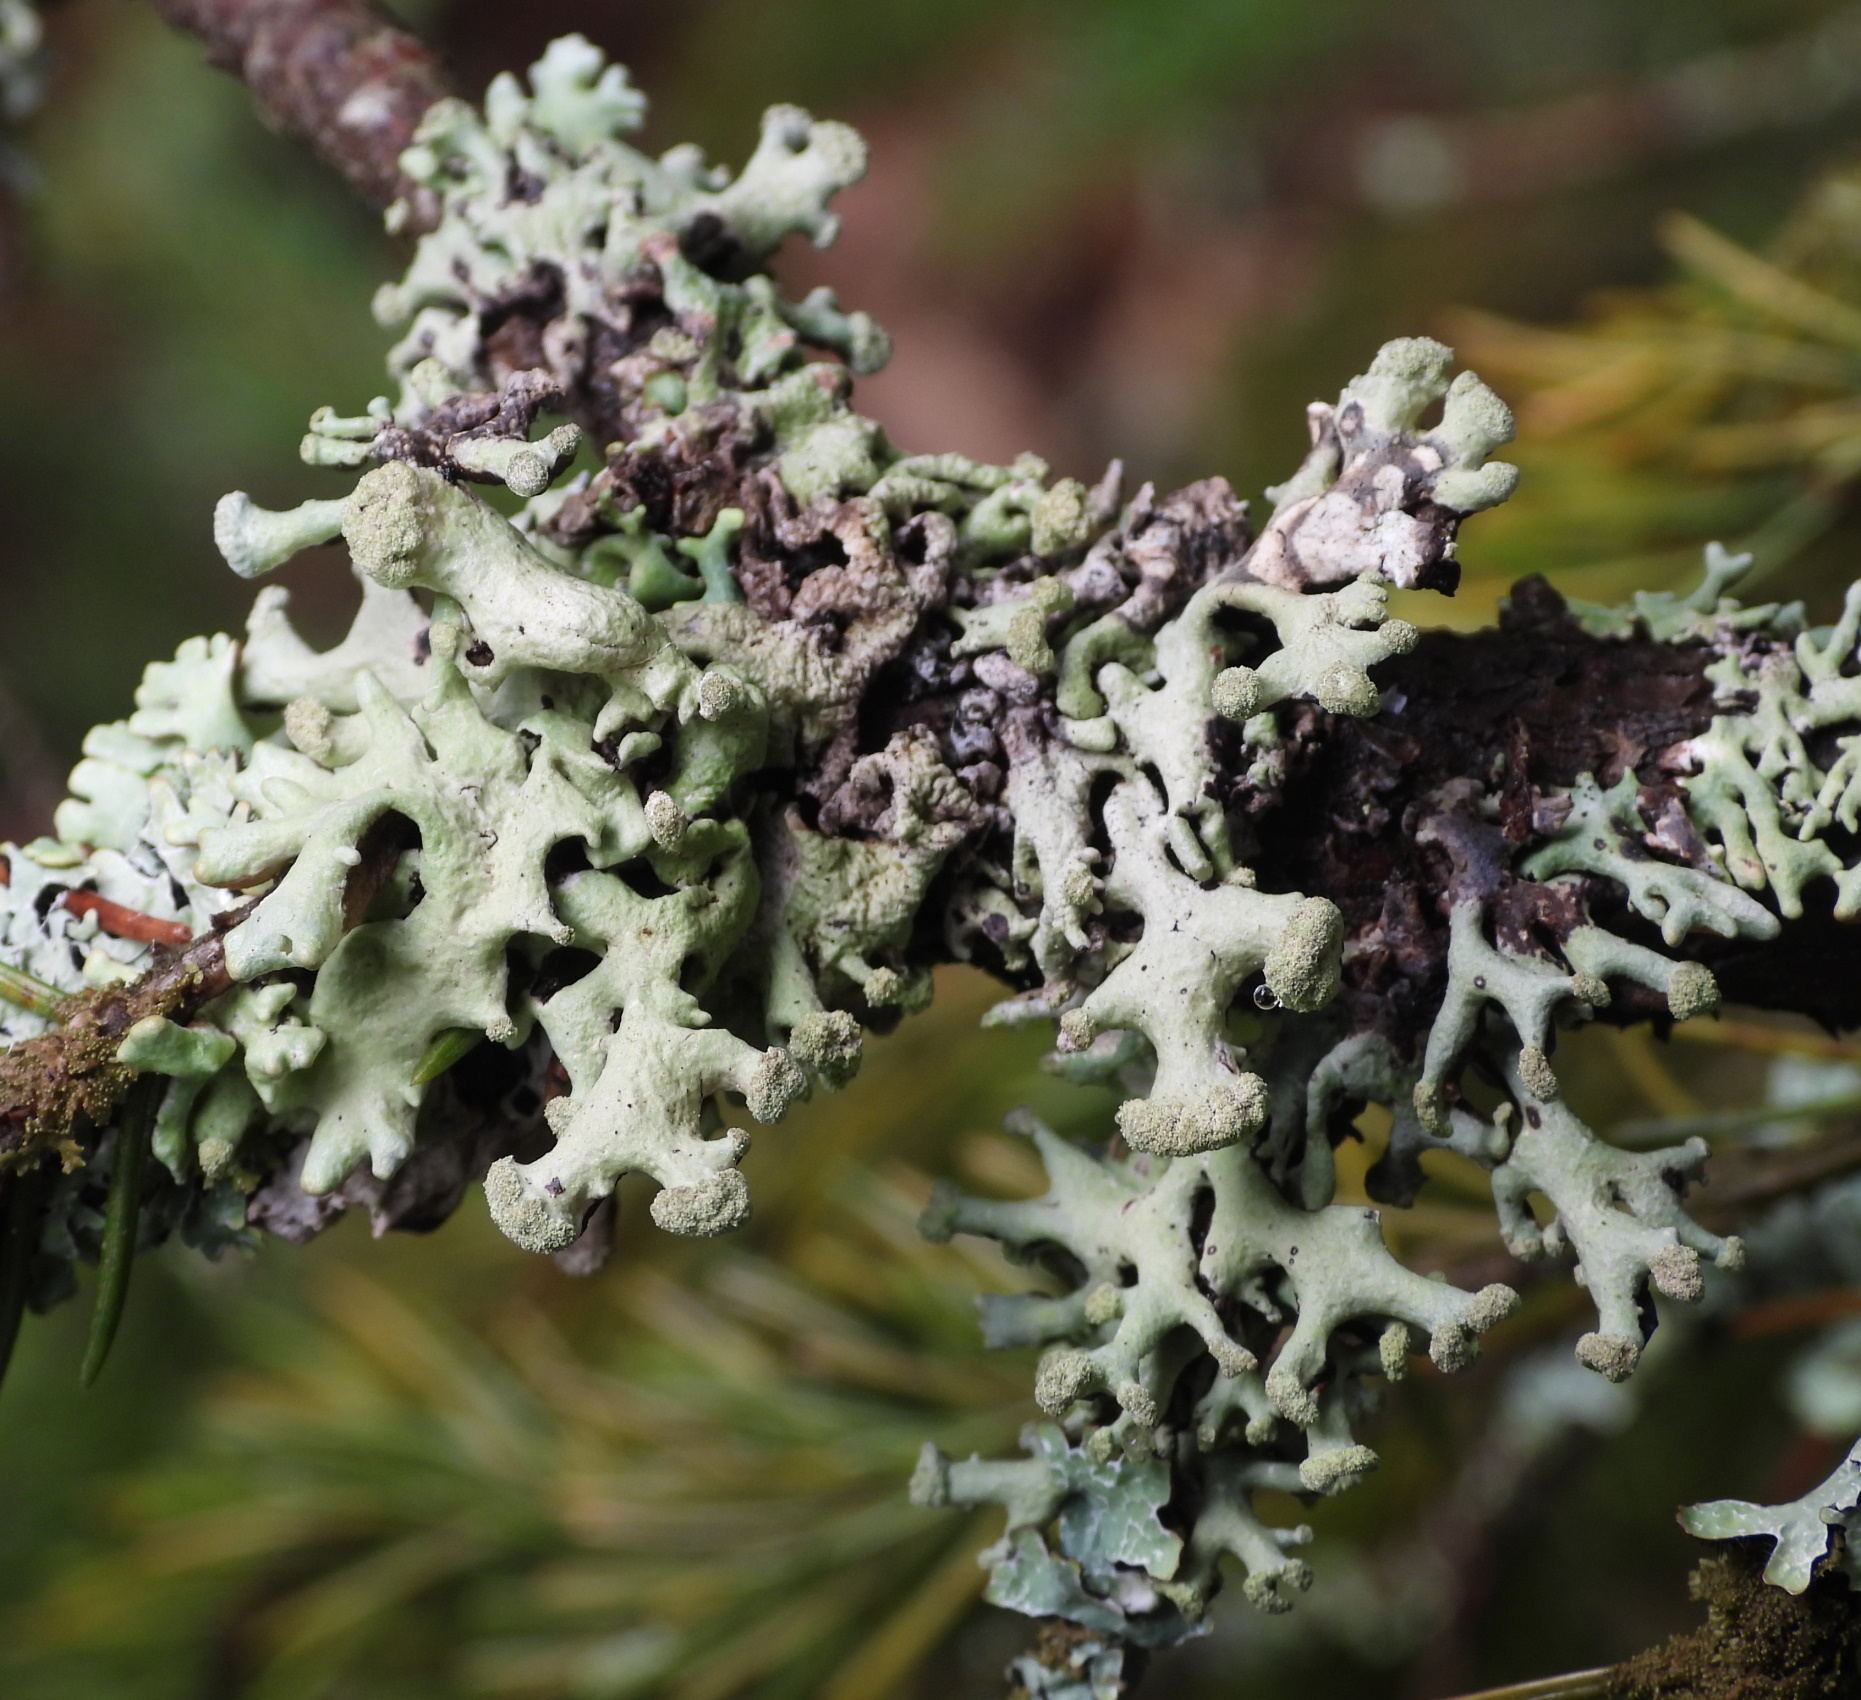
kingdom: Fungi
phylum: Ascomycota
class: Lecanoromycetes
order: Lecanorales
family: Parmeliaceae
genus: Hypogymnia
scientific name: Hypogymnia tubulosa
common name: Powder-headed tube lichen
